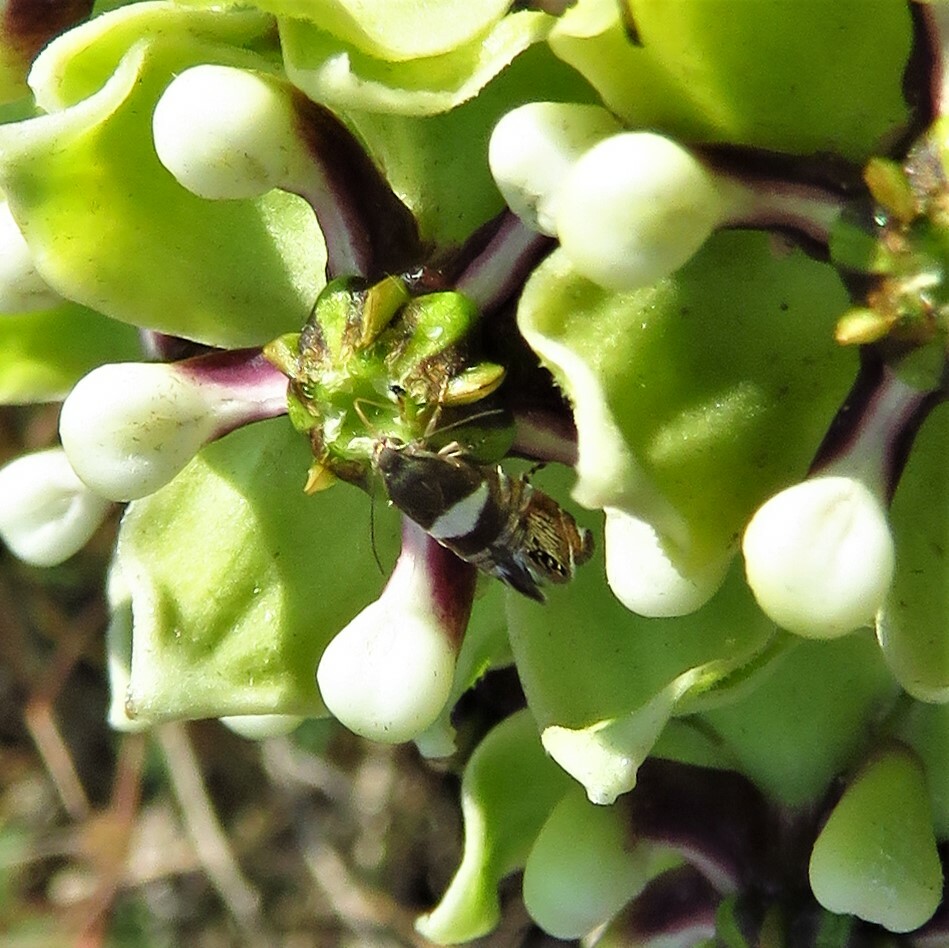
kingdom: Animalia
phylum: Arthropoda
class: Insecta
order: Lepidoptera
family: Glyphipterigidae
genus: Glyphipterix
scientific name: Glyphipterix circumscriptella
